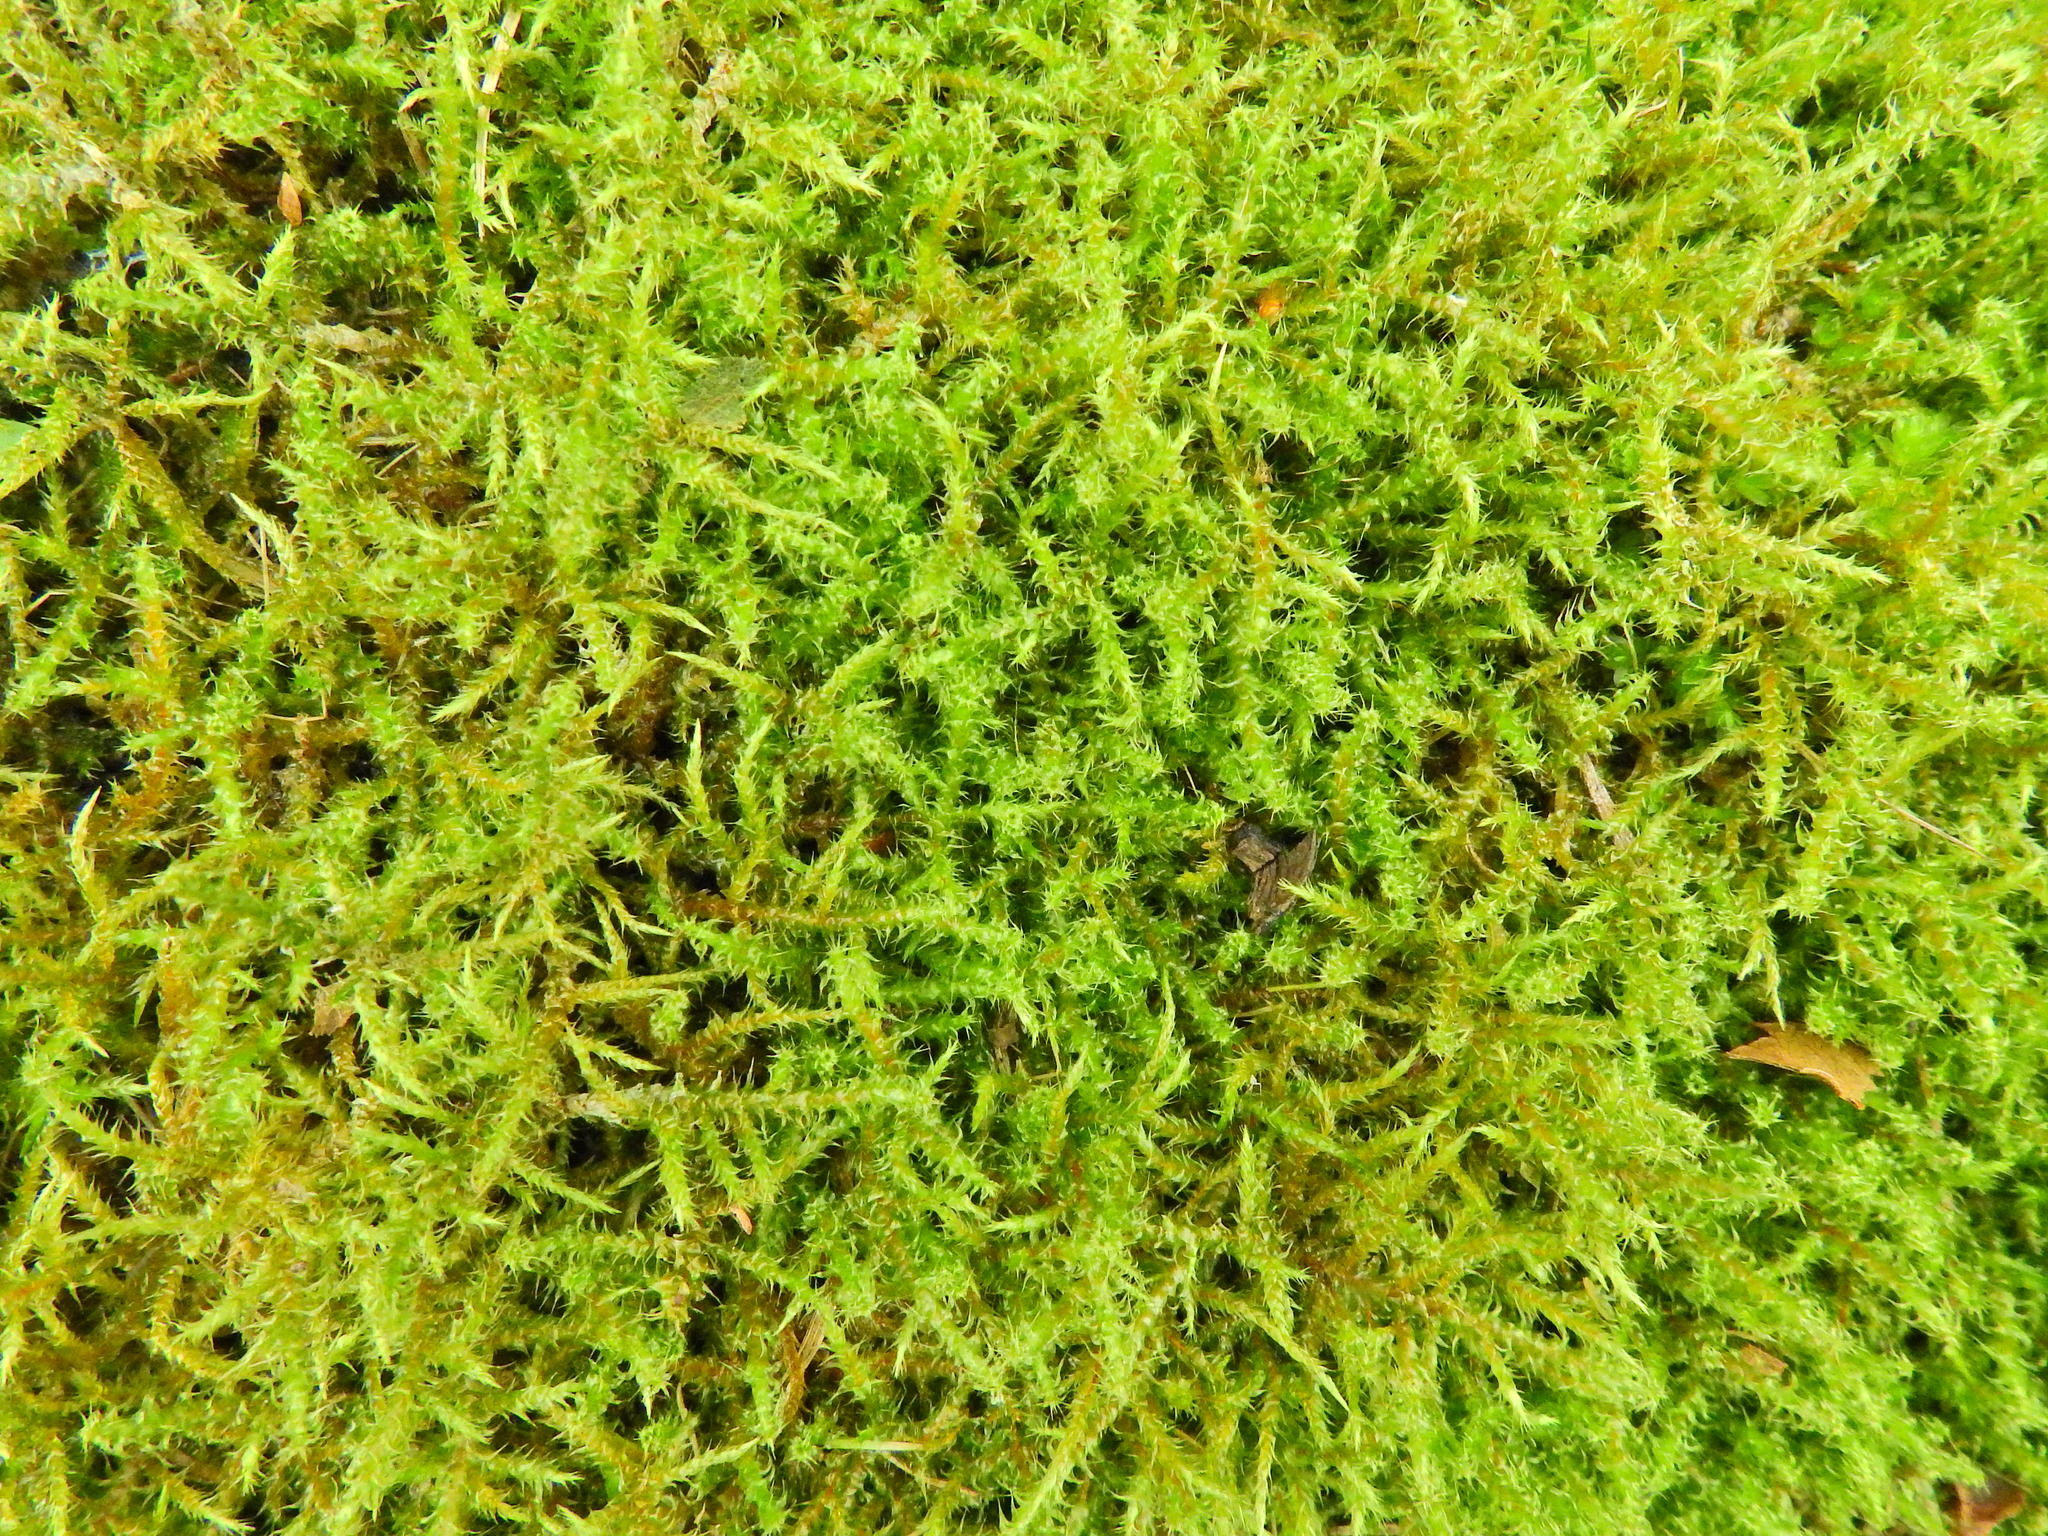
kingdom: Plantae
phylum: Bryophyta
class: Bryopsida
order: Hypnales
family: Hylocomiaceae
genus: Rhytidiadelphus
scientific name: Rhytidiadelphus squarrosus
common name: Springy turf-moss
